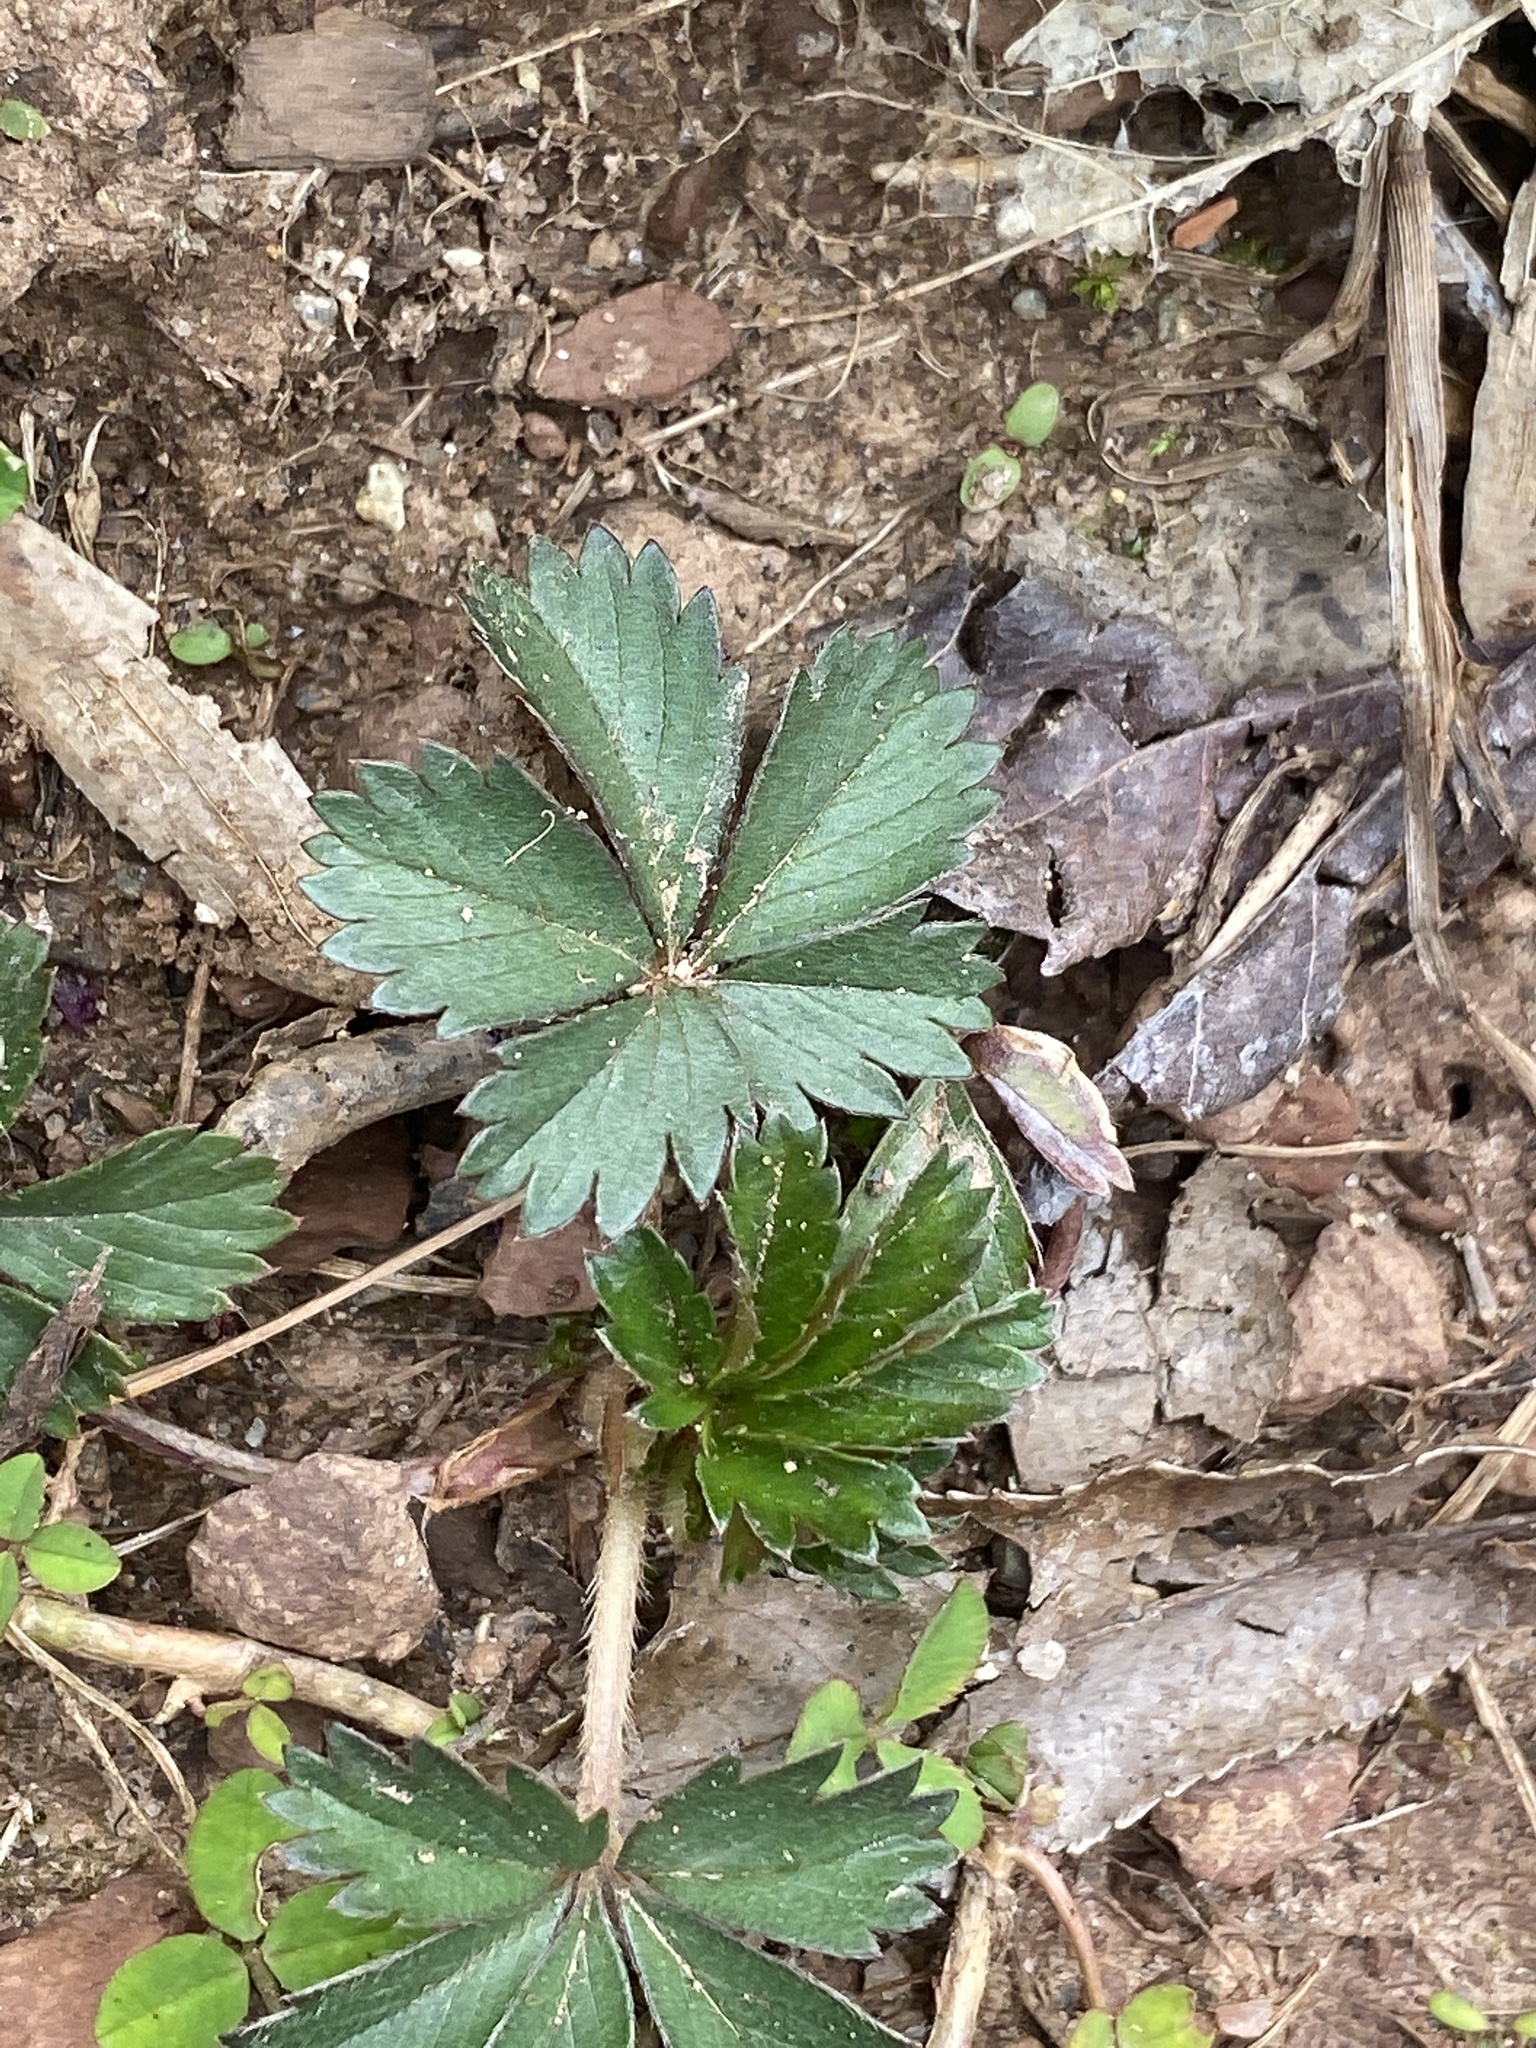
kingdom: Plantae
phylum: Tracheophyta
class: Magnoliopsida
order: Rosales
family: Rosaceae
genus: Potentilla
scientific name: Potentilla canadensis
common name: Canada cinquefoil
